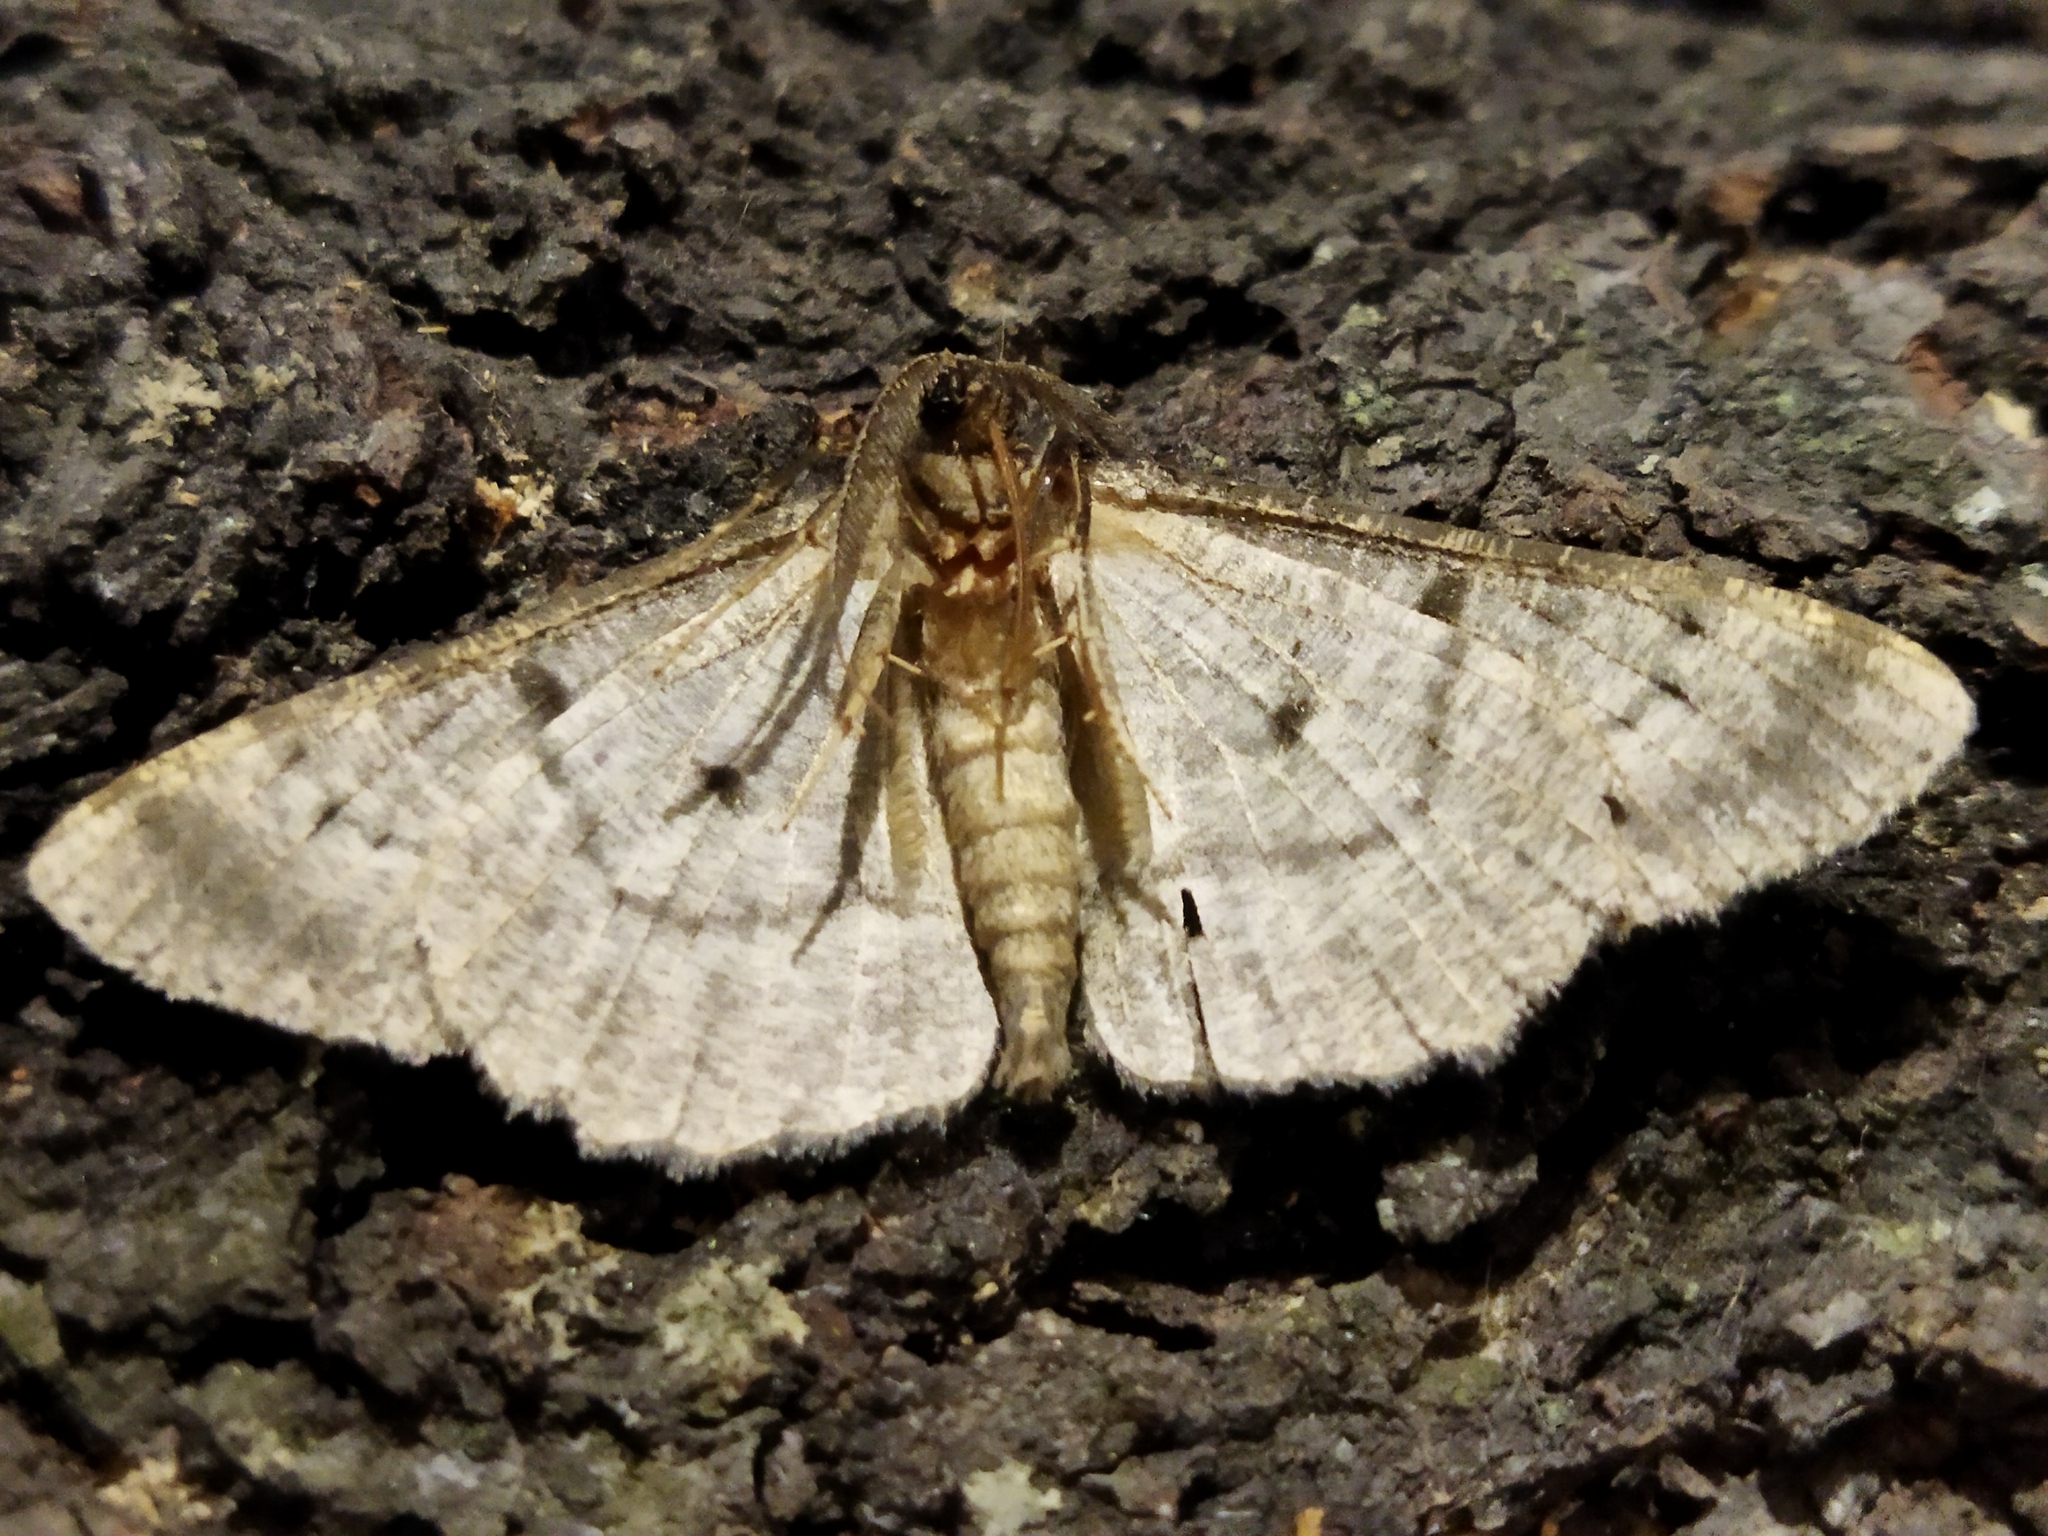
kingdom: Animalia
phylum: Arthropoda
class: Insecta
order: Lepidoptera
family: Geometridae
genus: Hypomecis
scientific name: Hypomecis punctinalis
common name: Pale oak beauty
